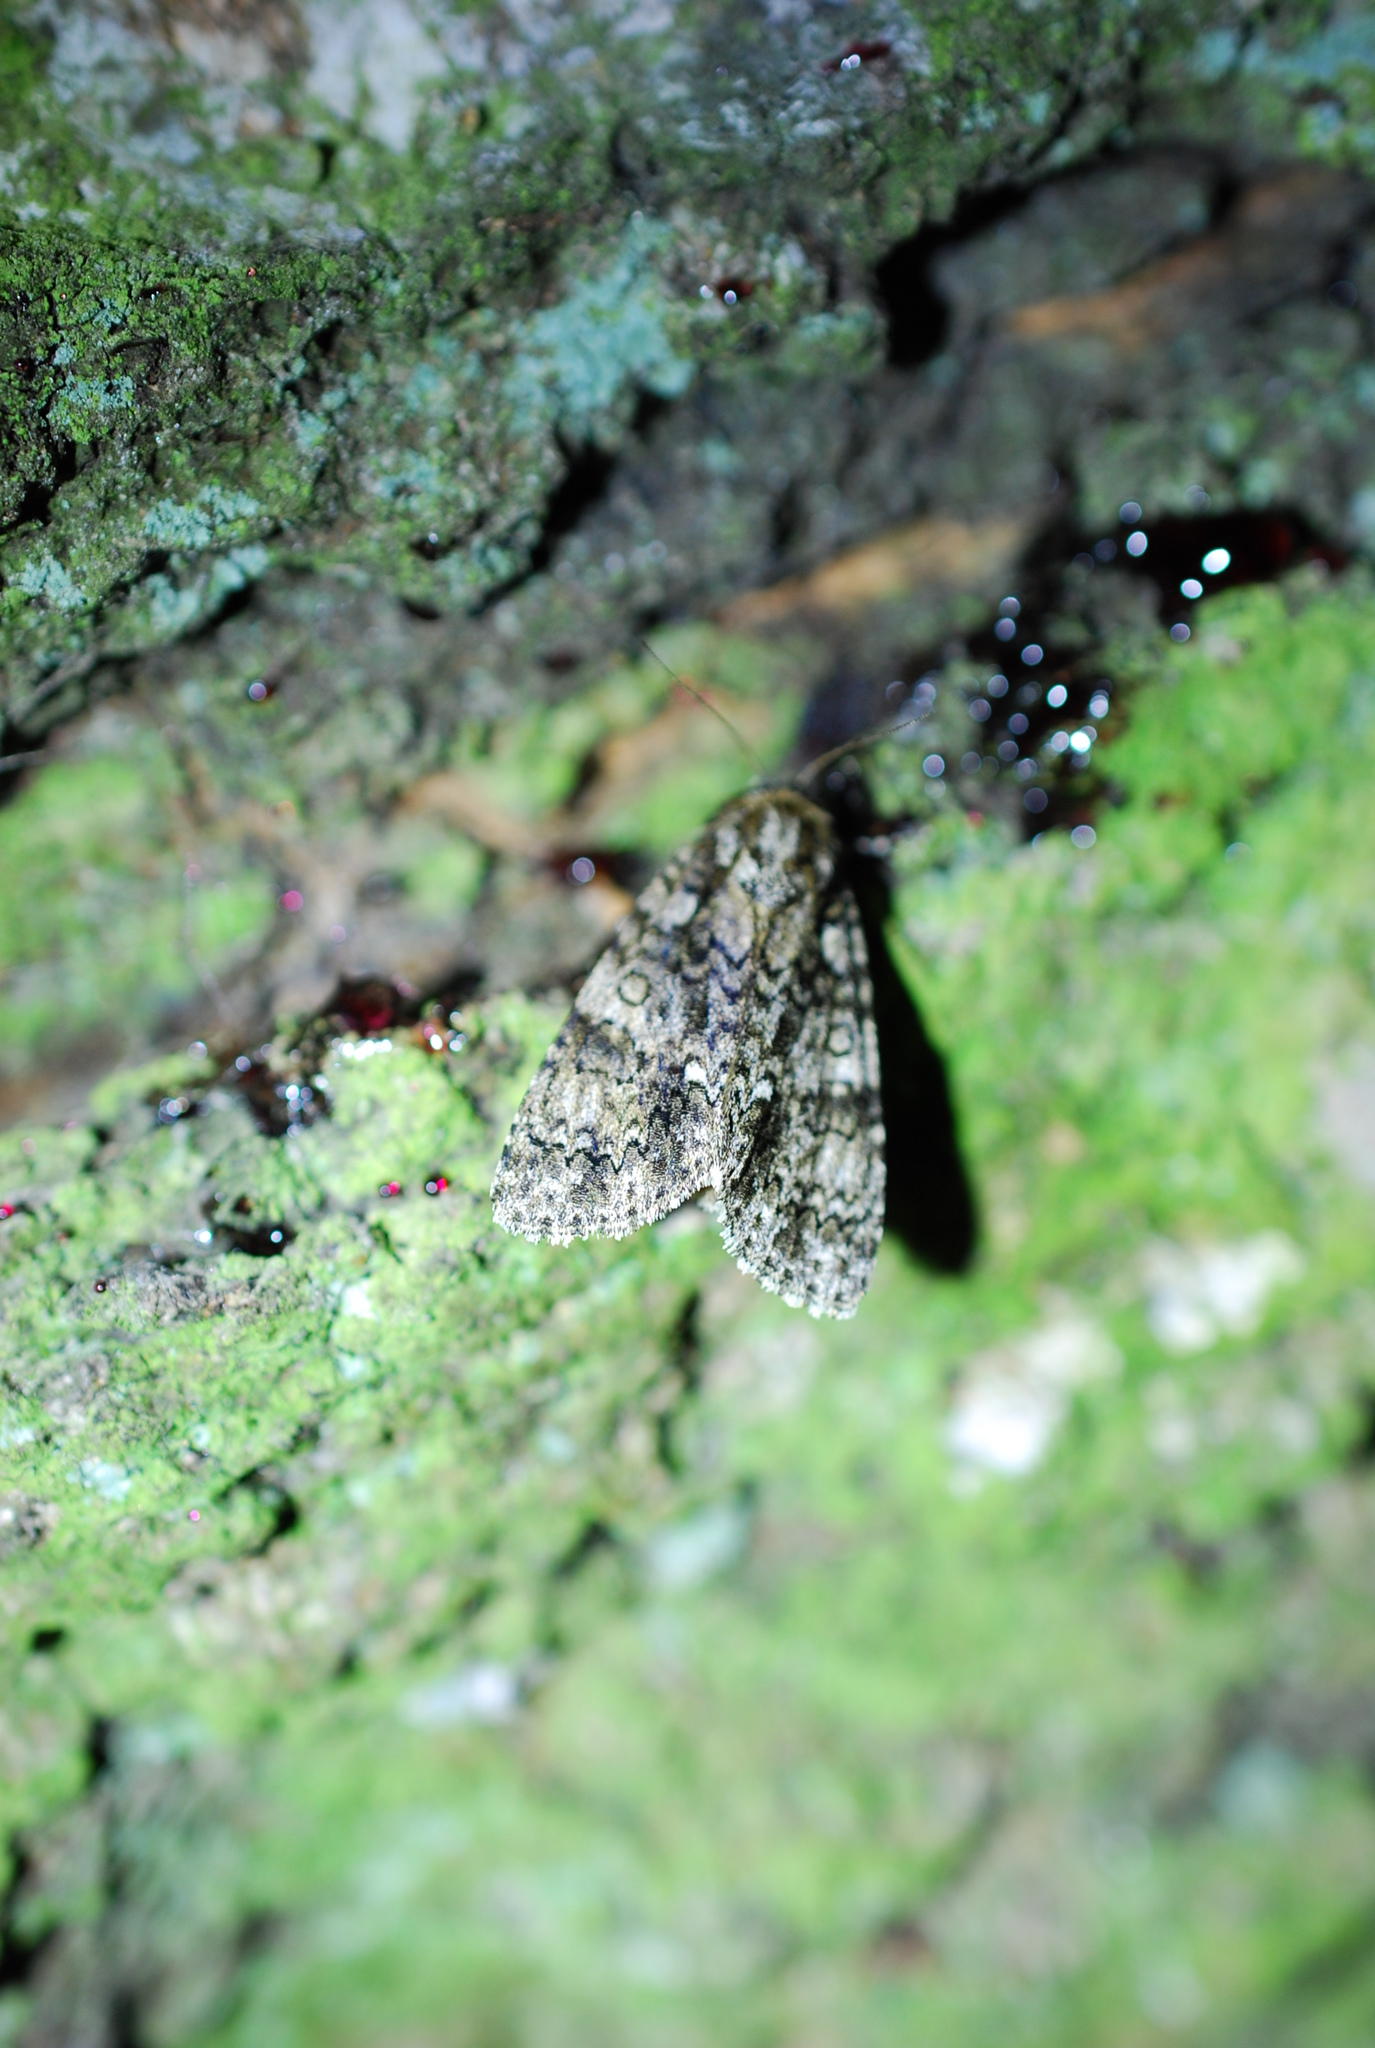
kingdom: Animalia
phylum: Arthropoda
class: Insecta
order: Lepidoptera
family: Noctuidae
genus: Acronicta
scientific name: Acronicta rumicis
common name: Knot grass
